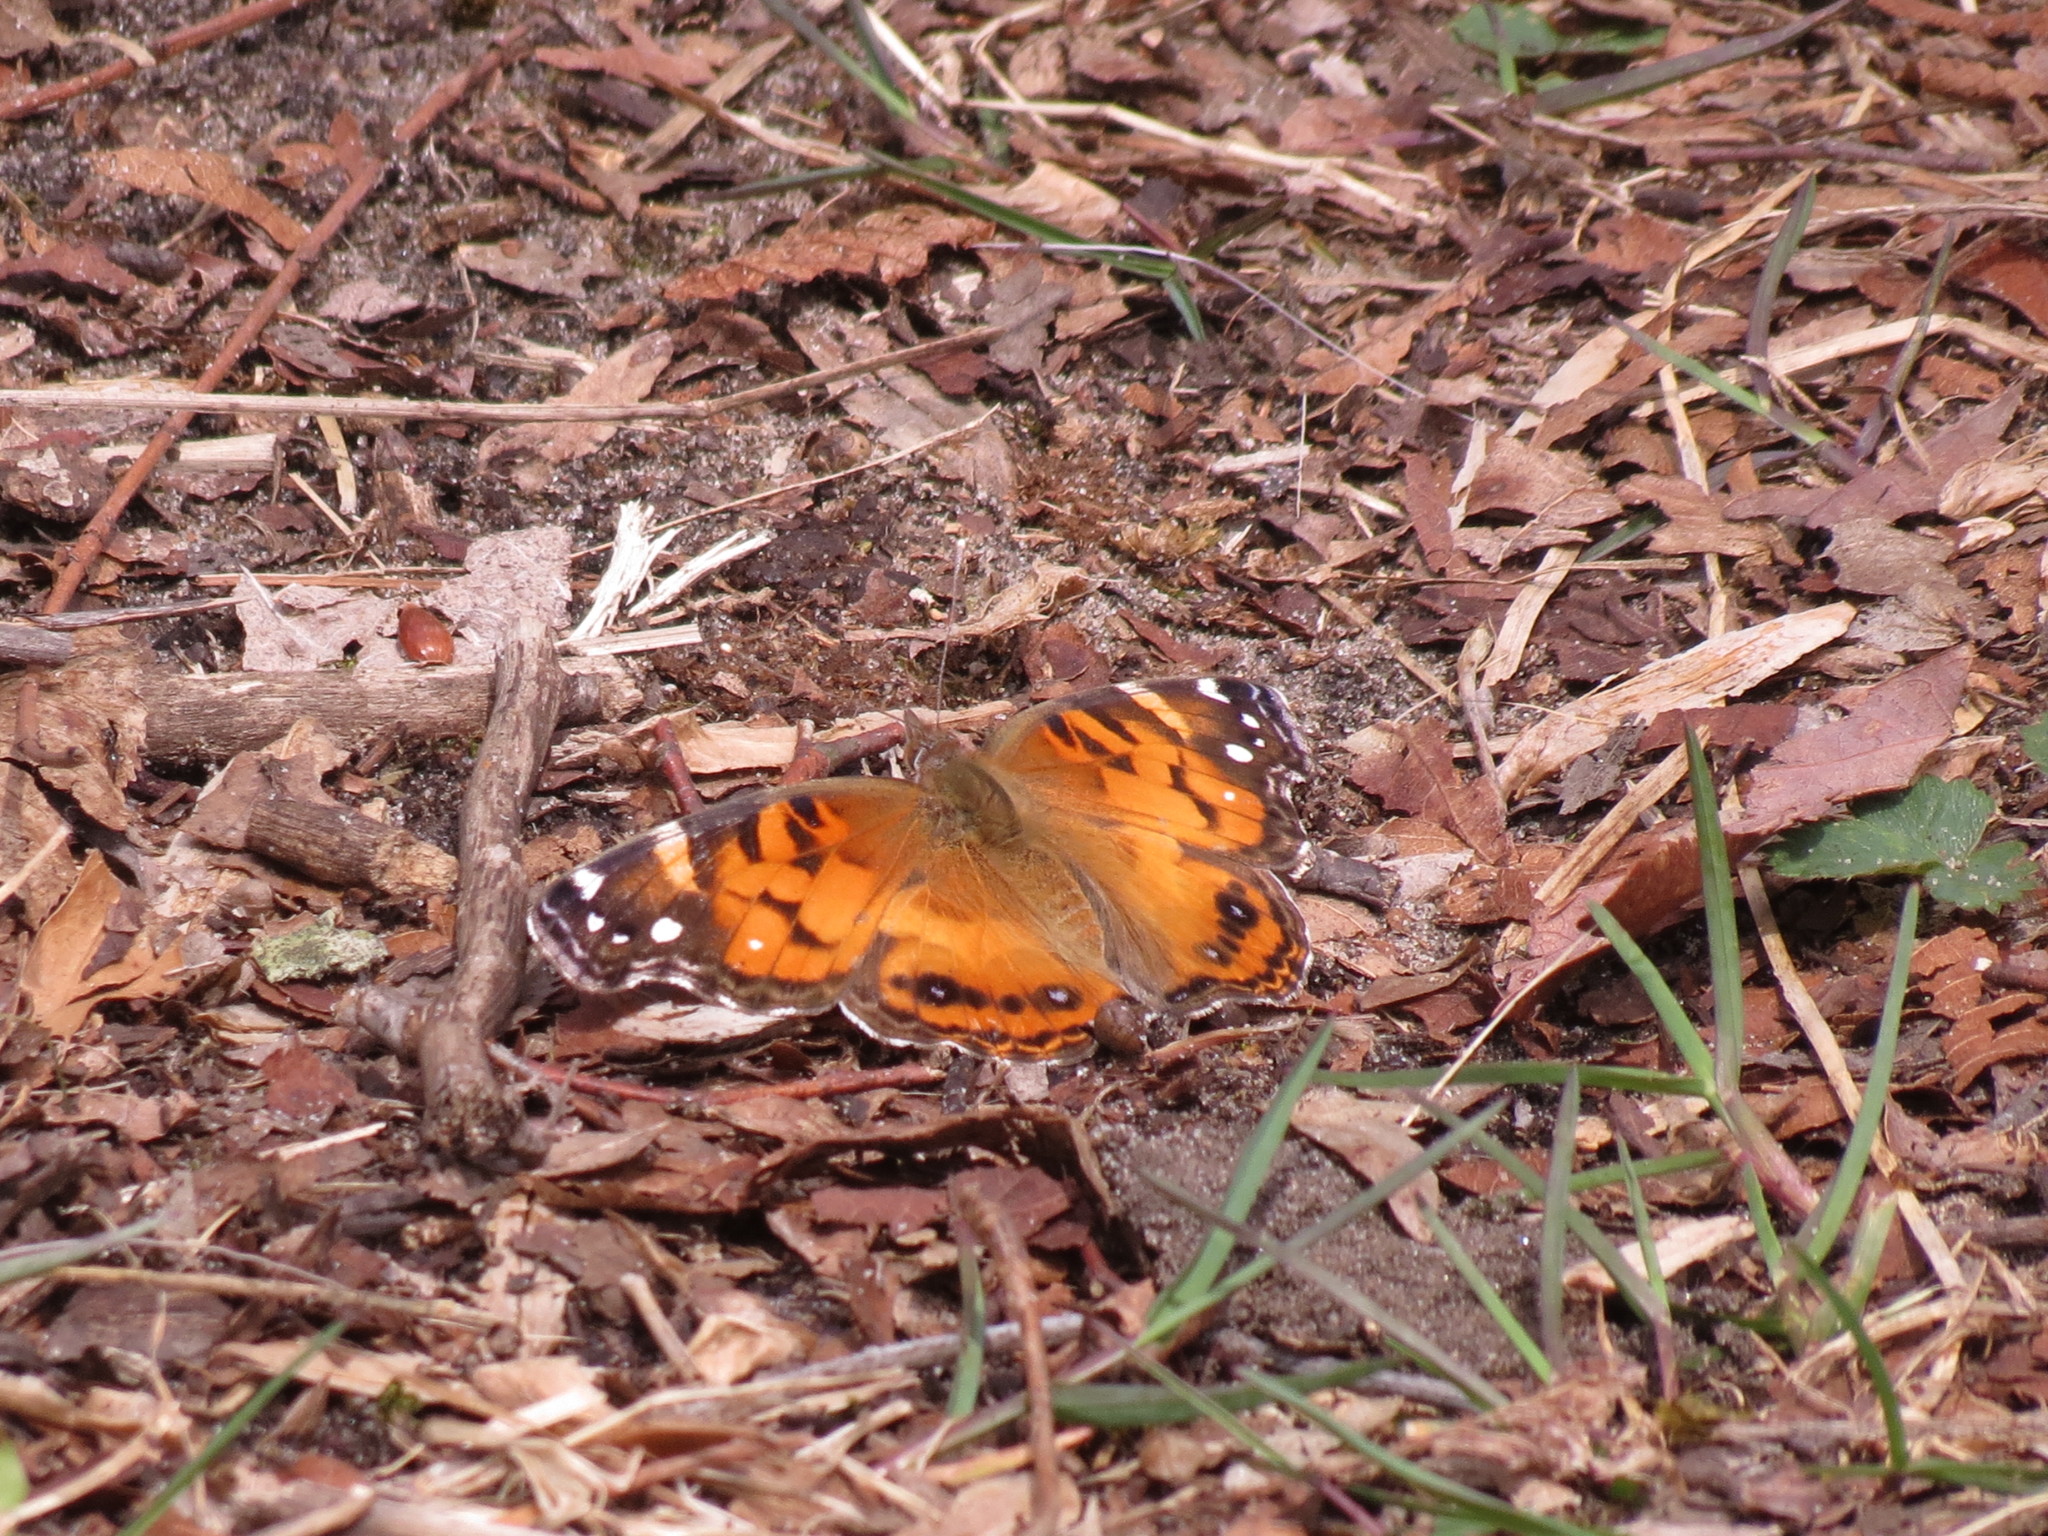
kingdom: Animalia
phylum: Arthropoda
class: Insecta
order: Lepidoptera
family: Nymphalidae
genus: Vanessa
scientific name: Vanessa virginiensis
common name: American lady
